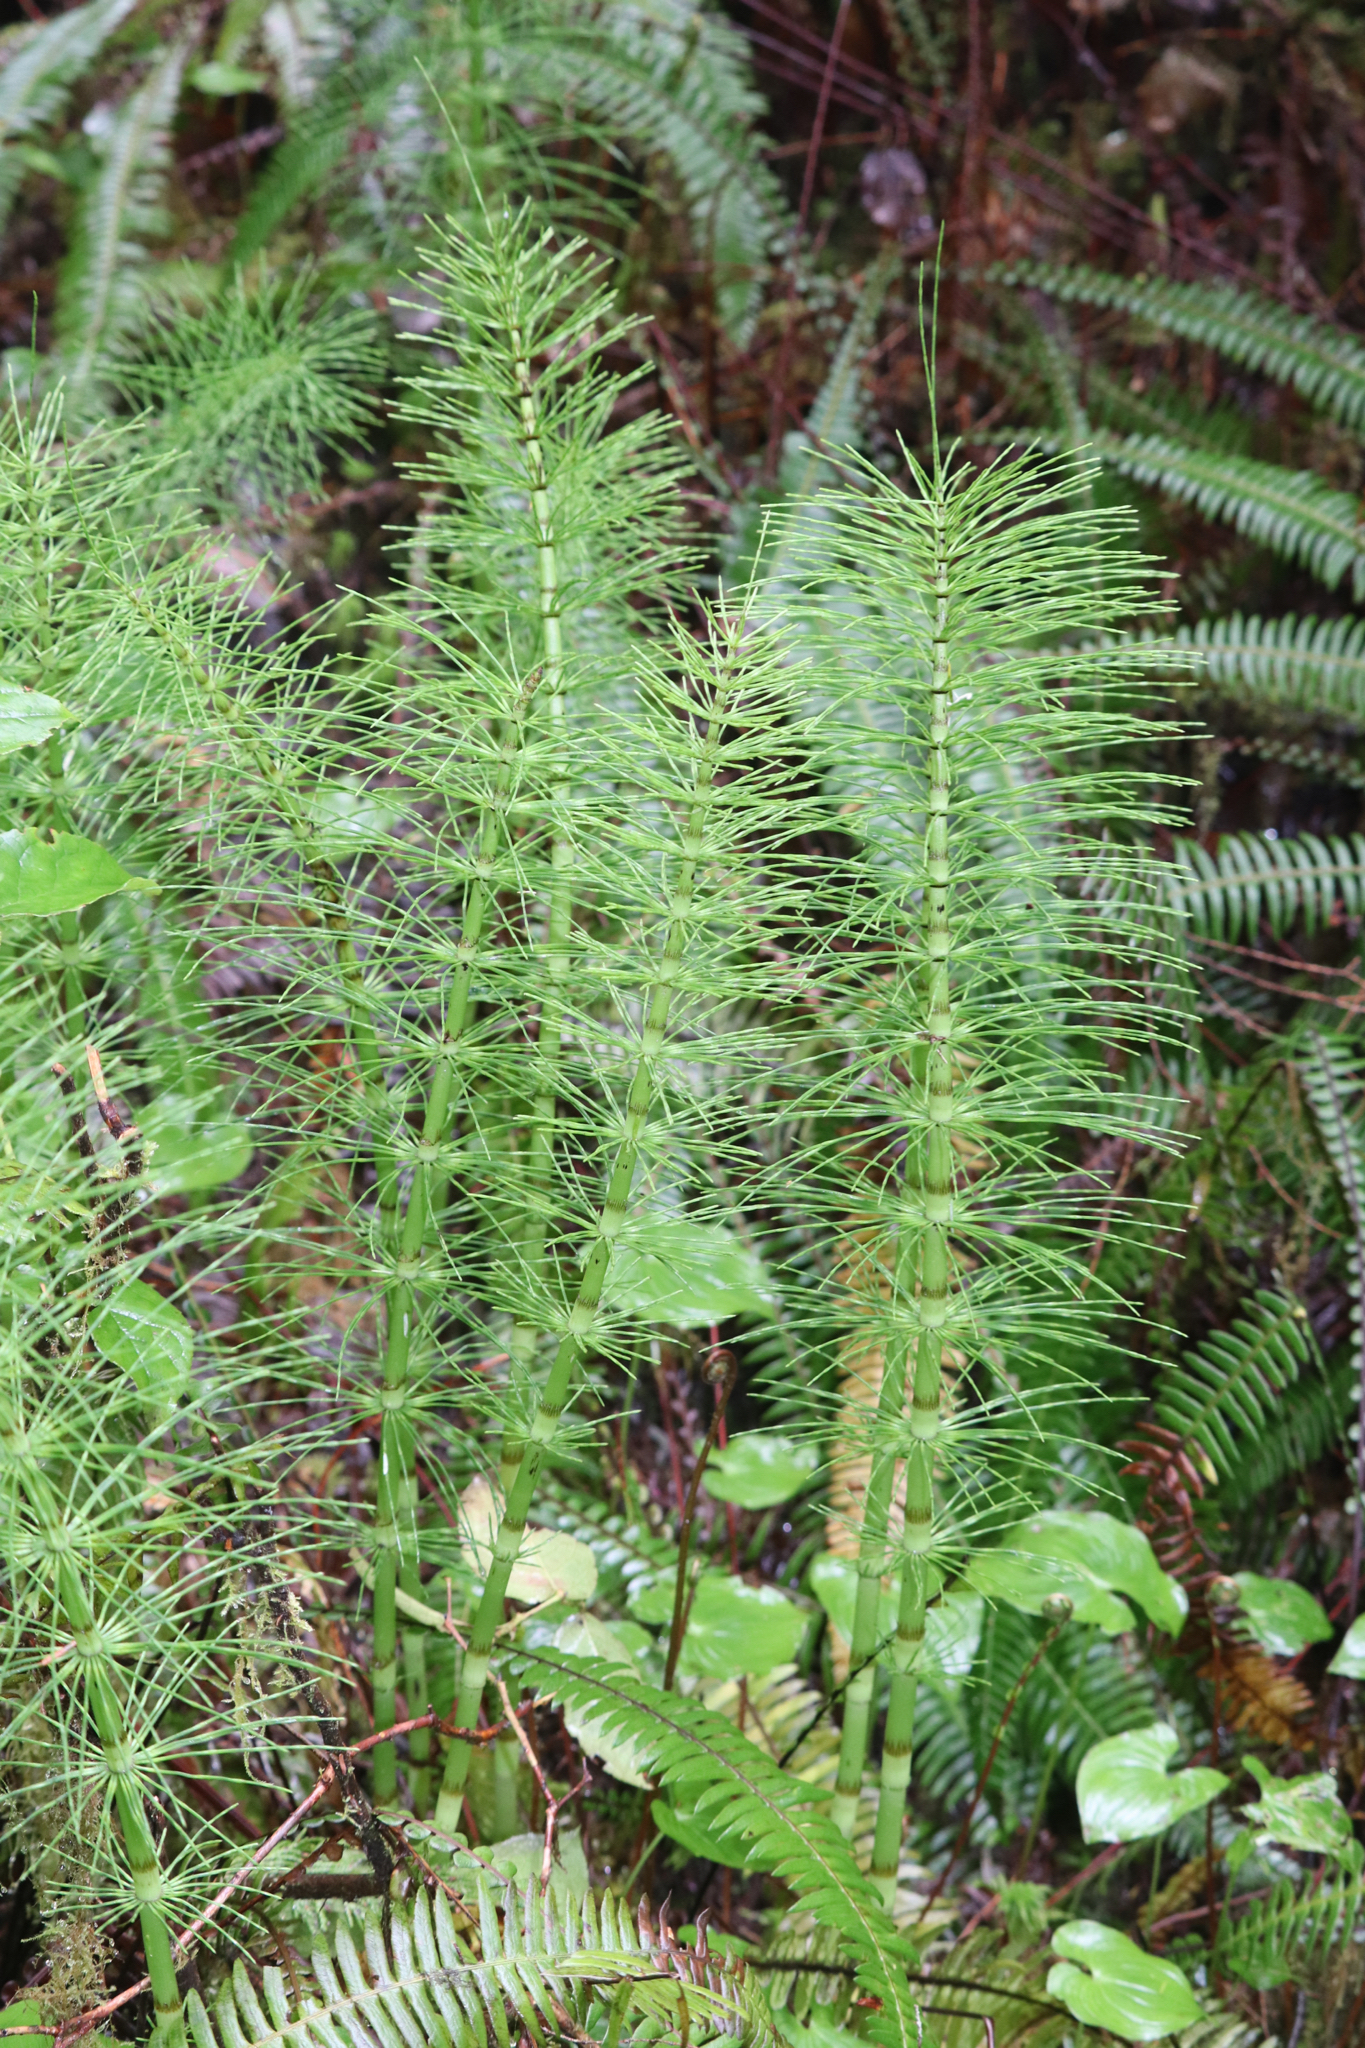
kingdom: Plantae
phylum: Tracheophyta
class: Polypodiopsida
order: Equisetales
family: Equisetaceae
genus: Equisetum
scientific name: Equisetum telmateia
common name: Great horsetail
